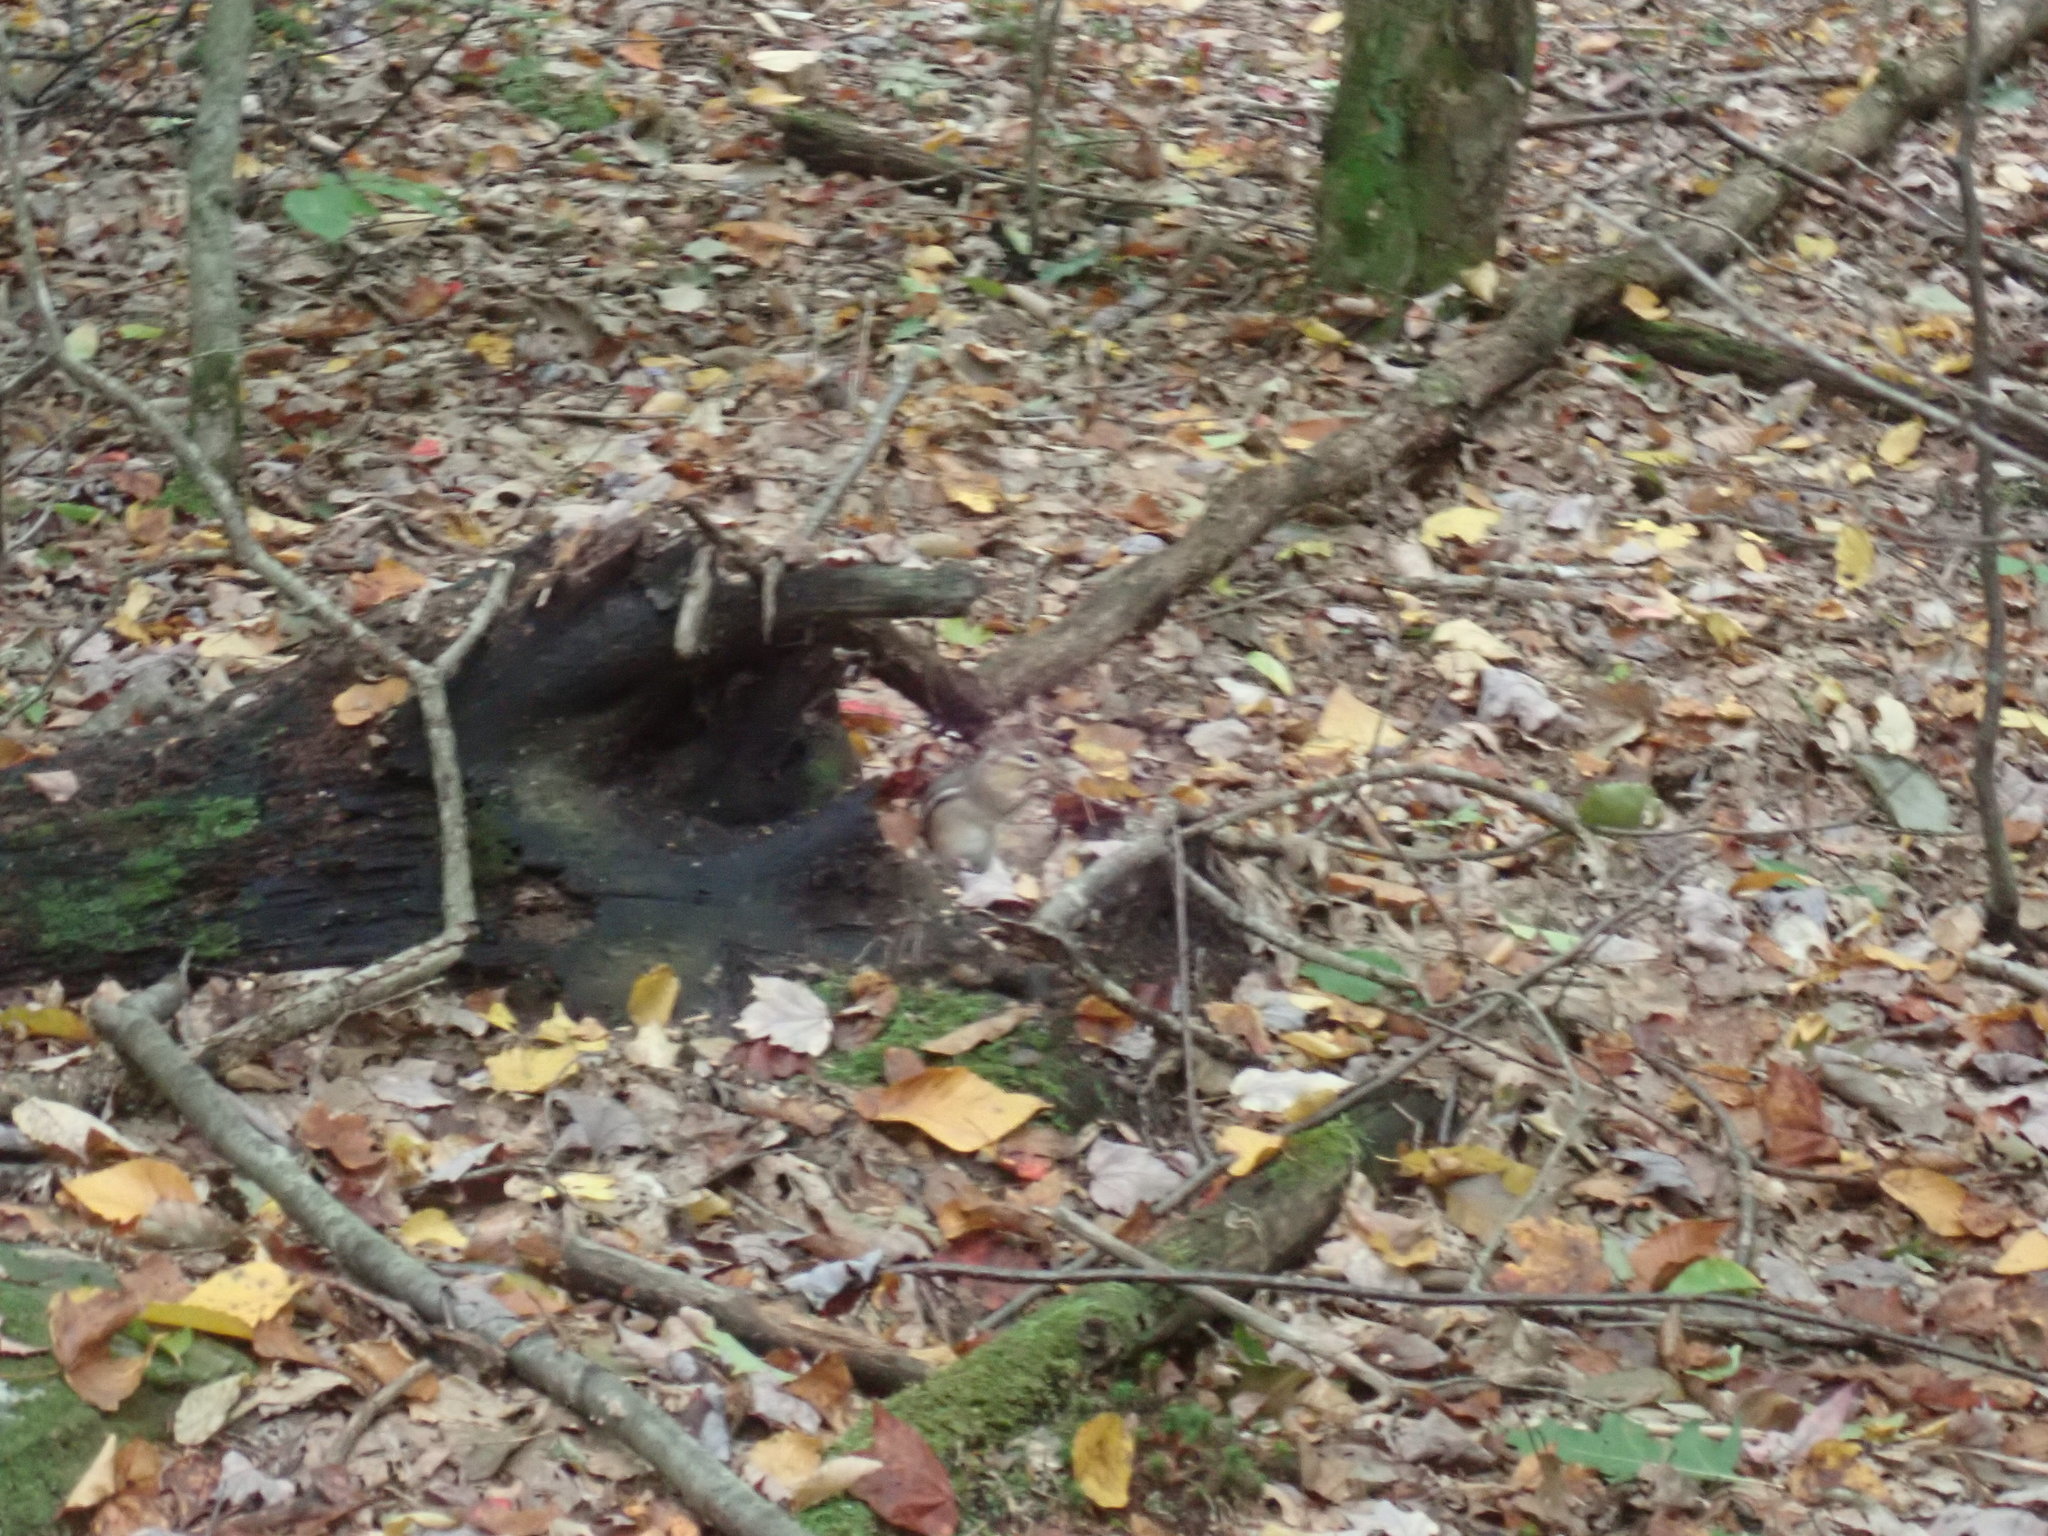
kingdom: Animalia
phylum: Chordata
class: Mammalia
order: Rodentia
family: Sciuridae
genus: Tamias
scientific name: Tamias striatus
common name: Eastern chipmunk
